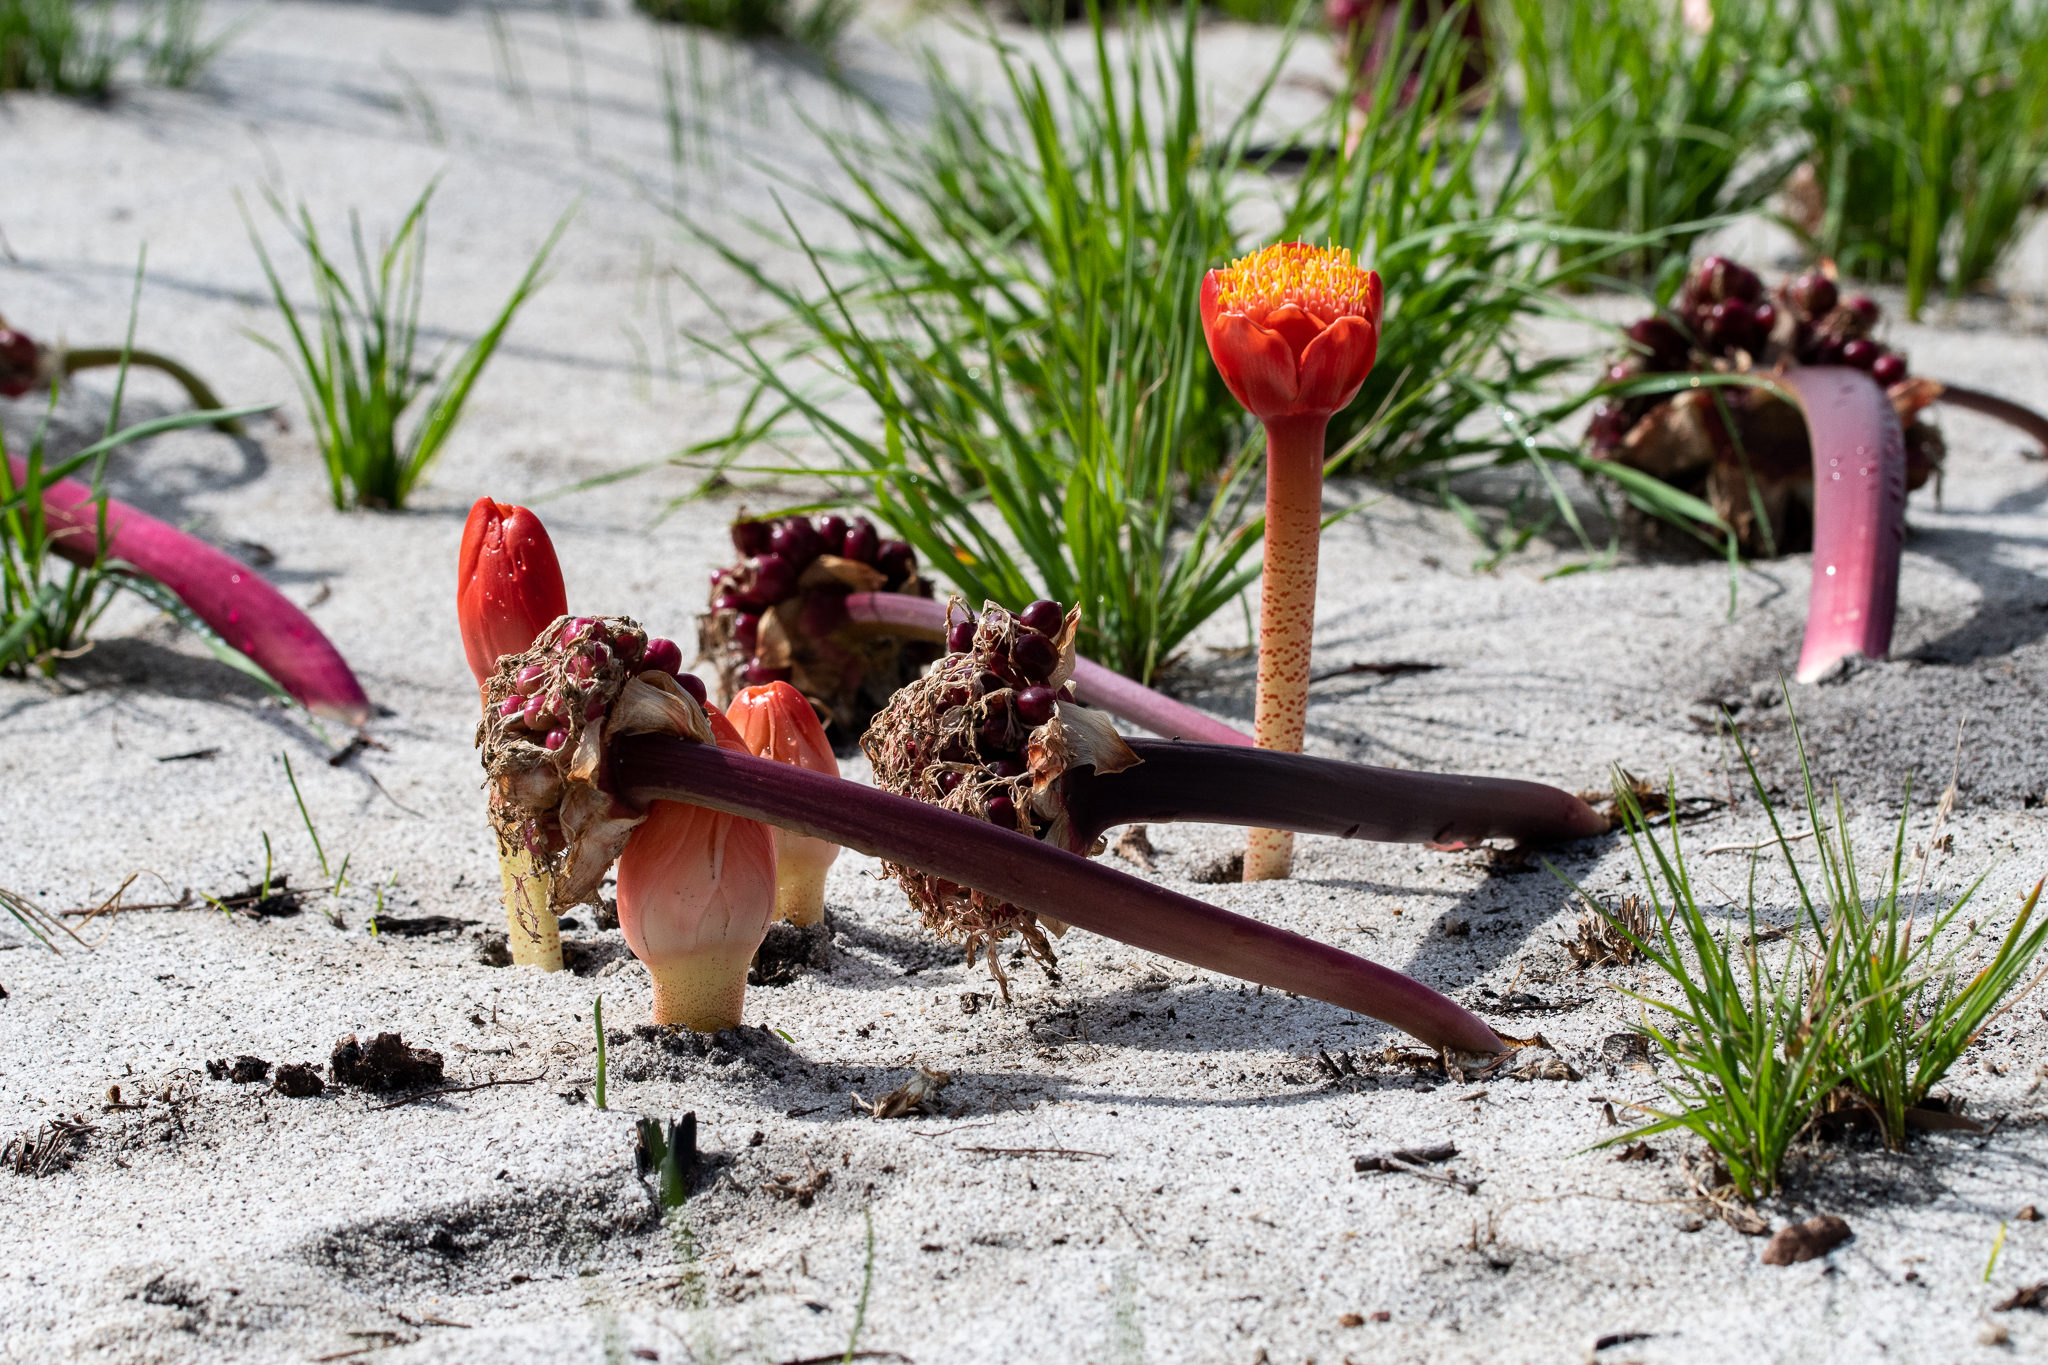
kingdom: Plantae
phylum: Tracheophyta
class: Liliopsida
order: Asparagales
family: Amaryllidaceae
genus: Haemanthus
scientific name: Haemanthus sanguineus
